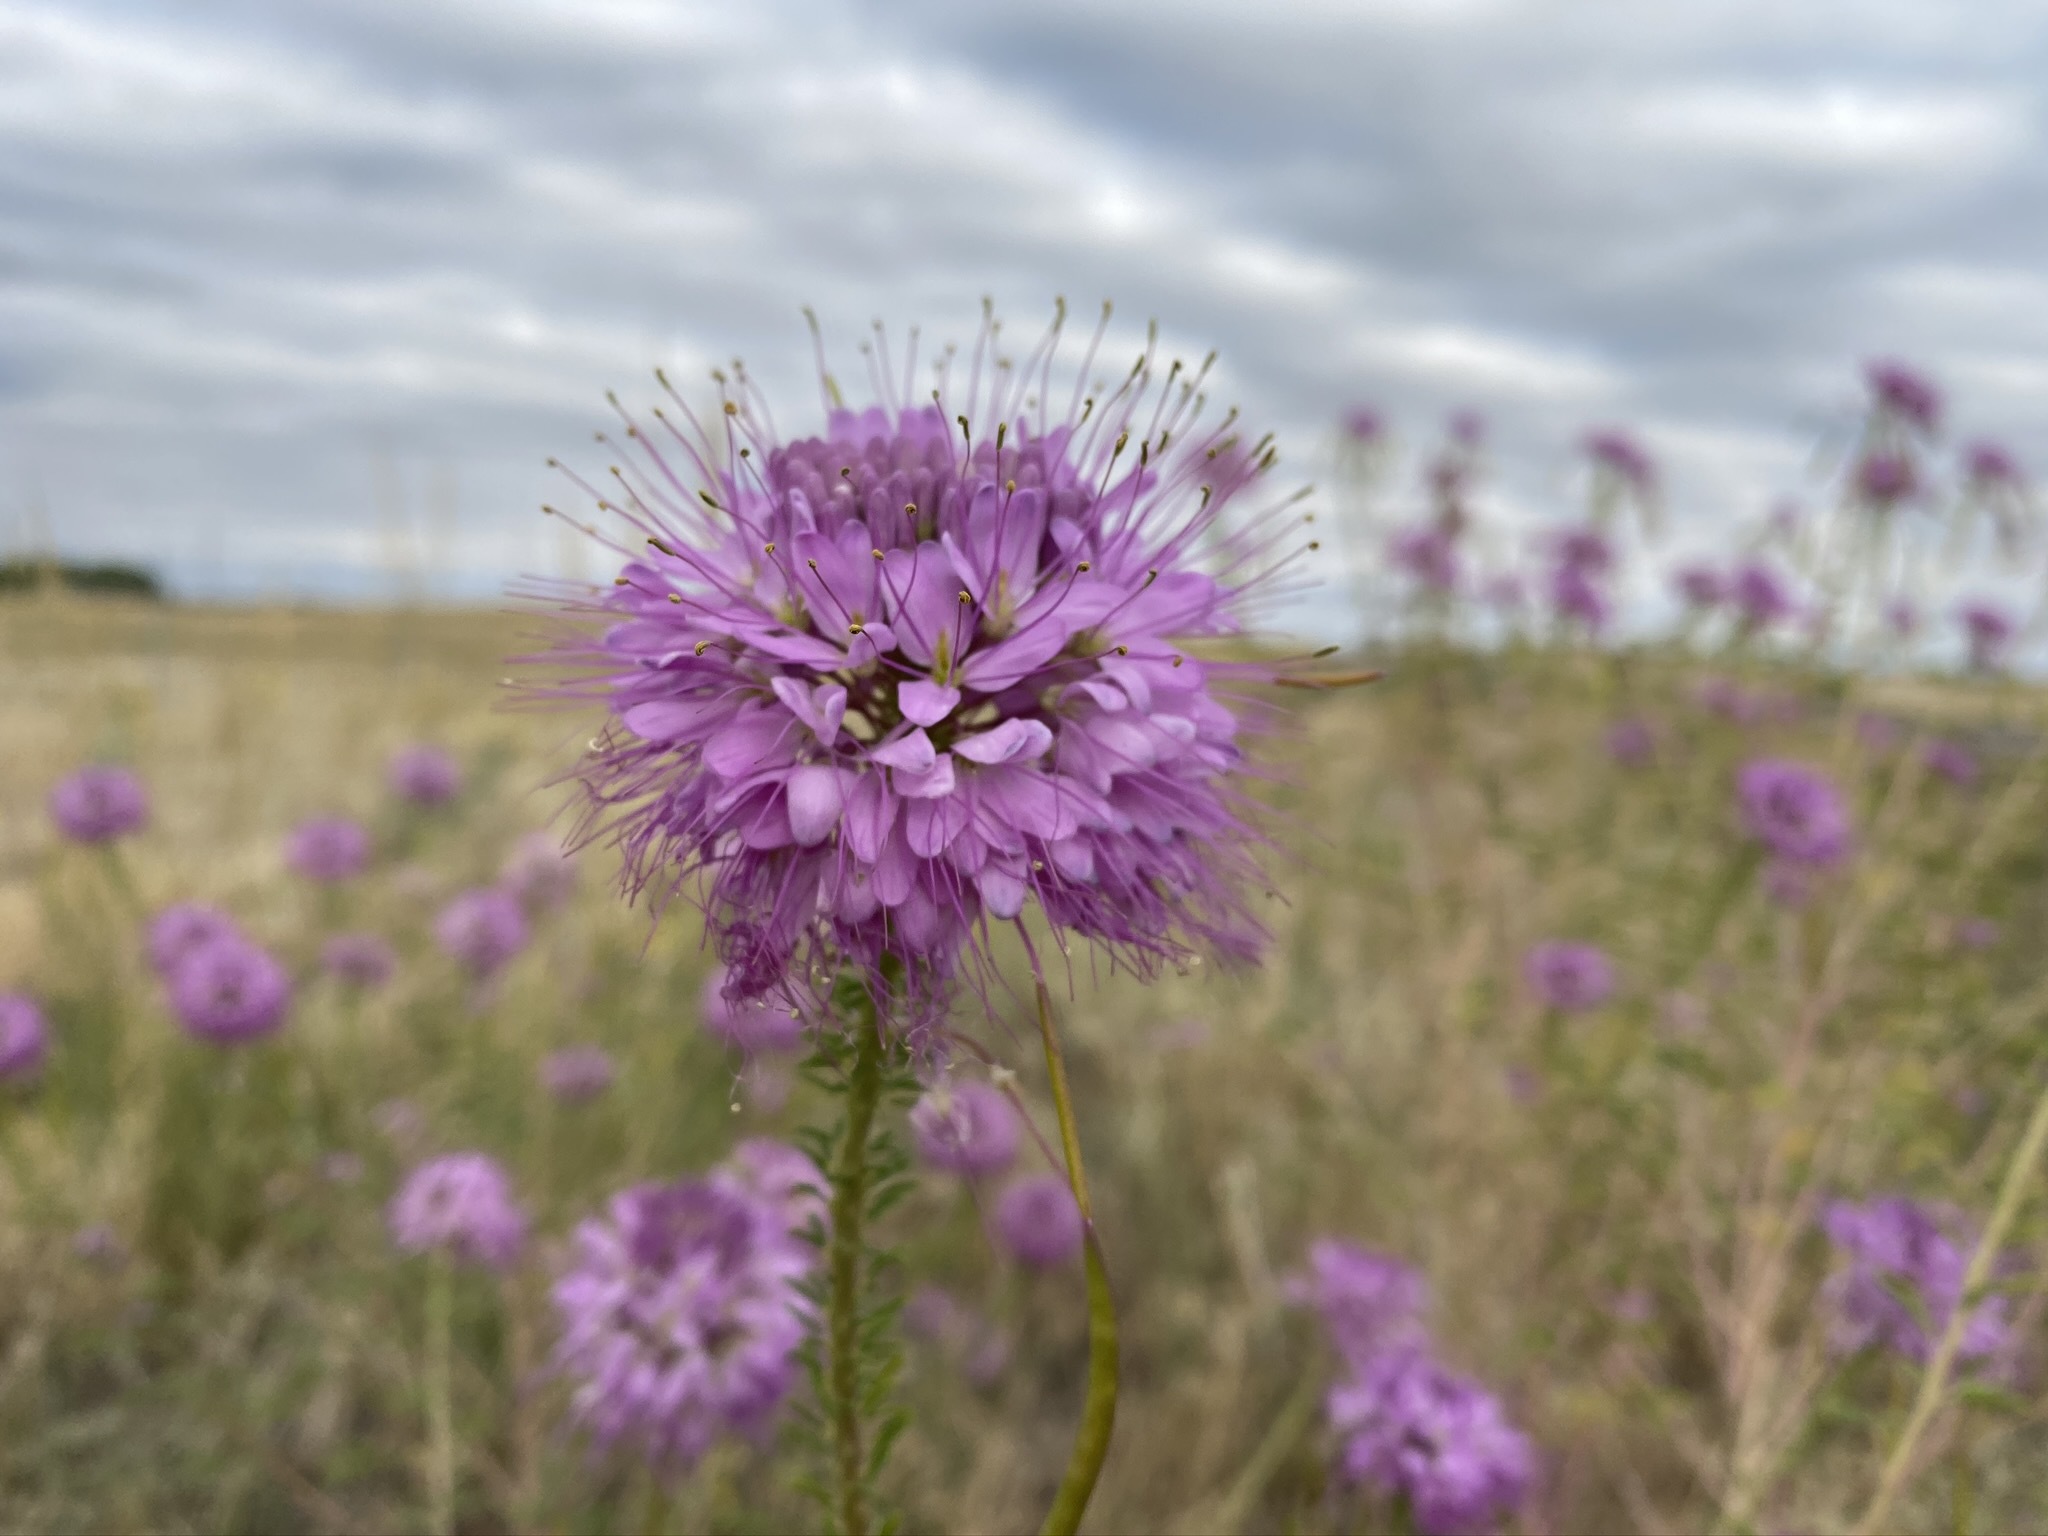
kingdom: Plantae
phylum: Tracheophyta
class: Magnoliopsida
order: Brassicales
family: Cleomaceae
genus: Cleomella
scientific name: Cleomella serrulata
